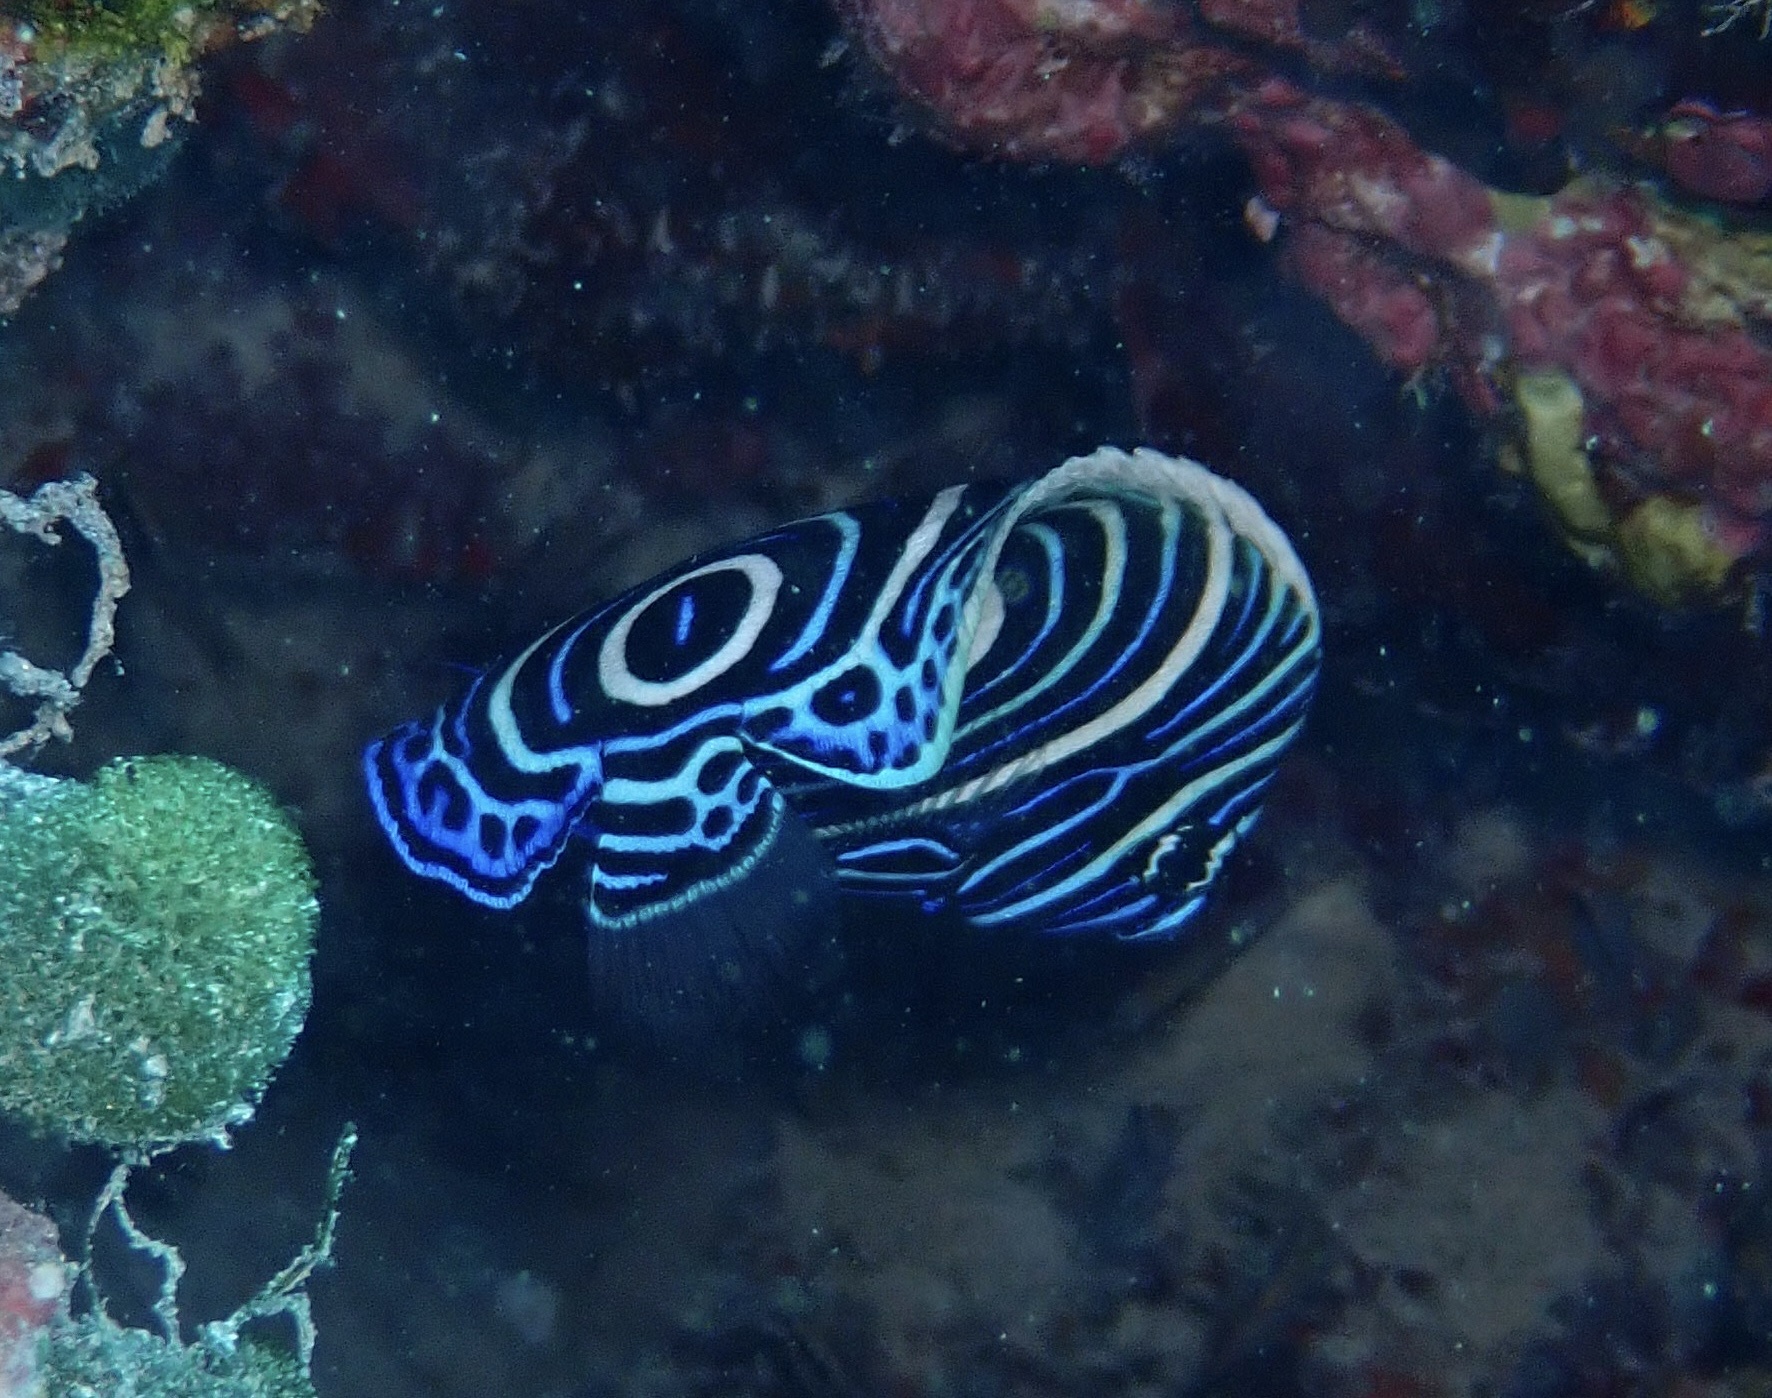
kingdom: Animalia
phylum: Chordata
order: Perciformes
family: Pomacanthidae
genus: Pomacanthus
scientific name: Pomacanthus imperator
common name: Emperor angelfish
